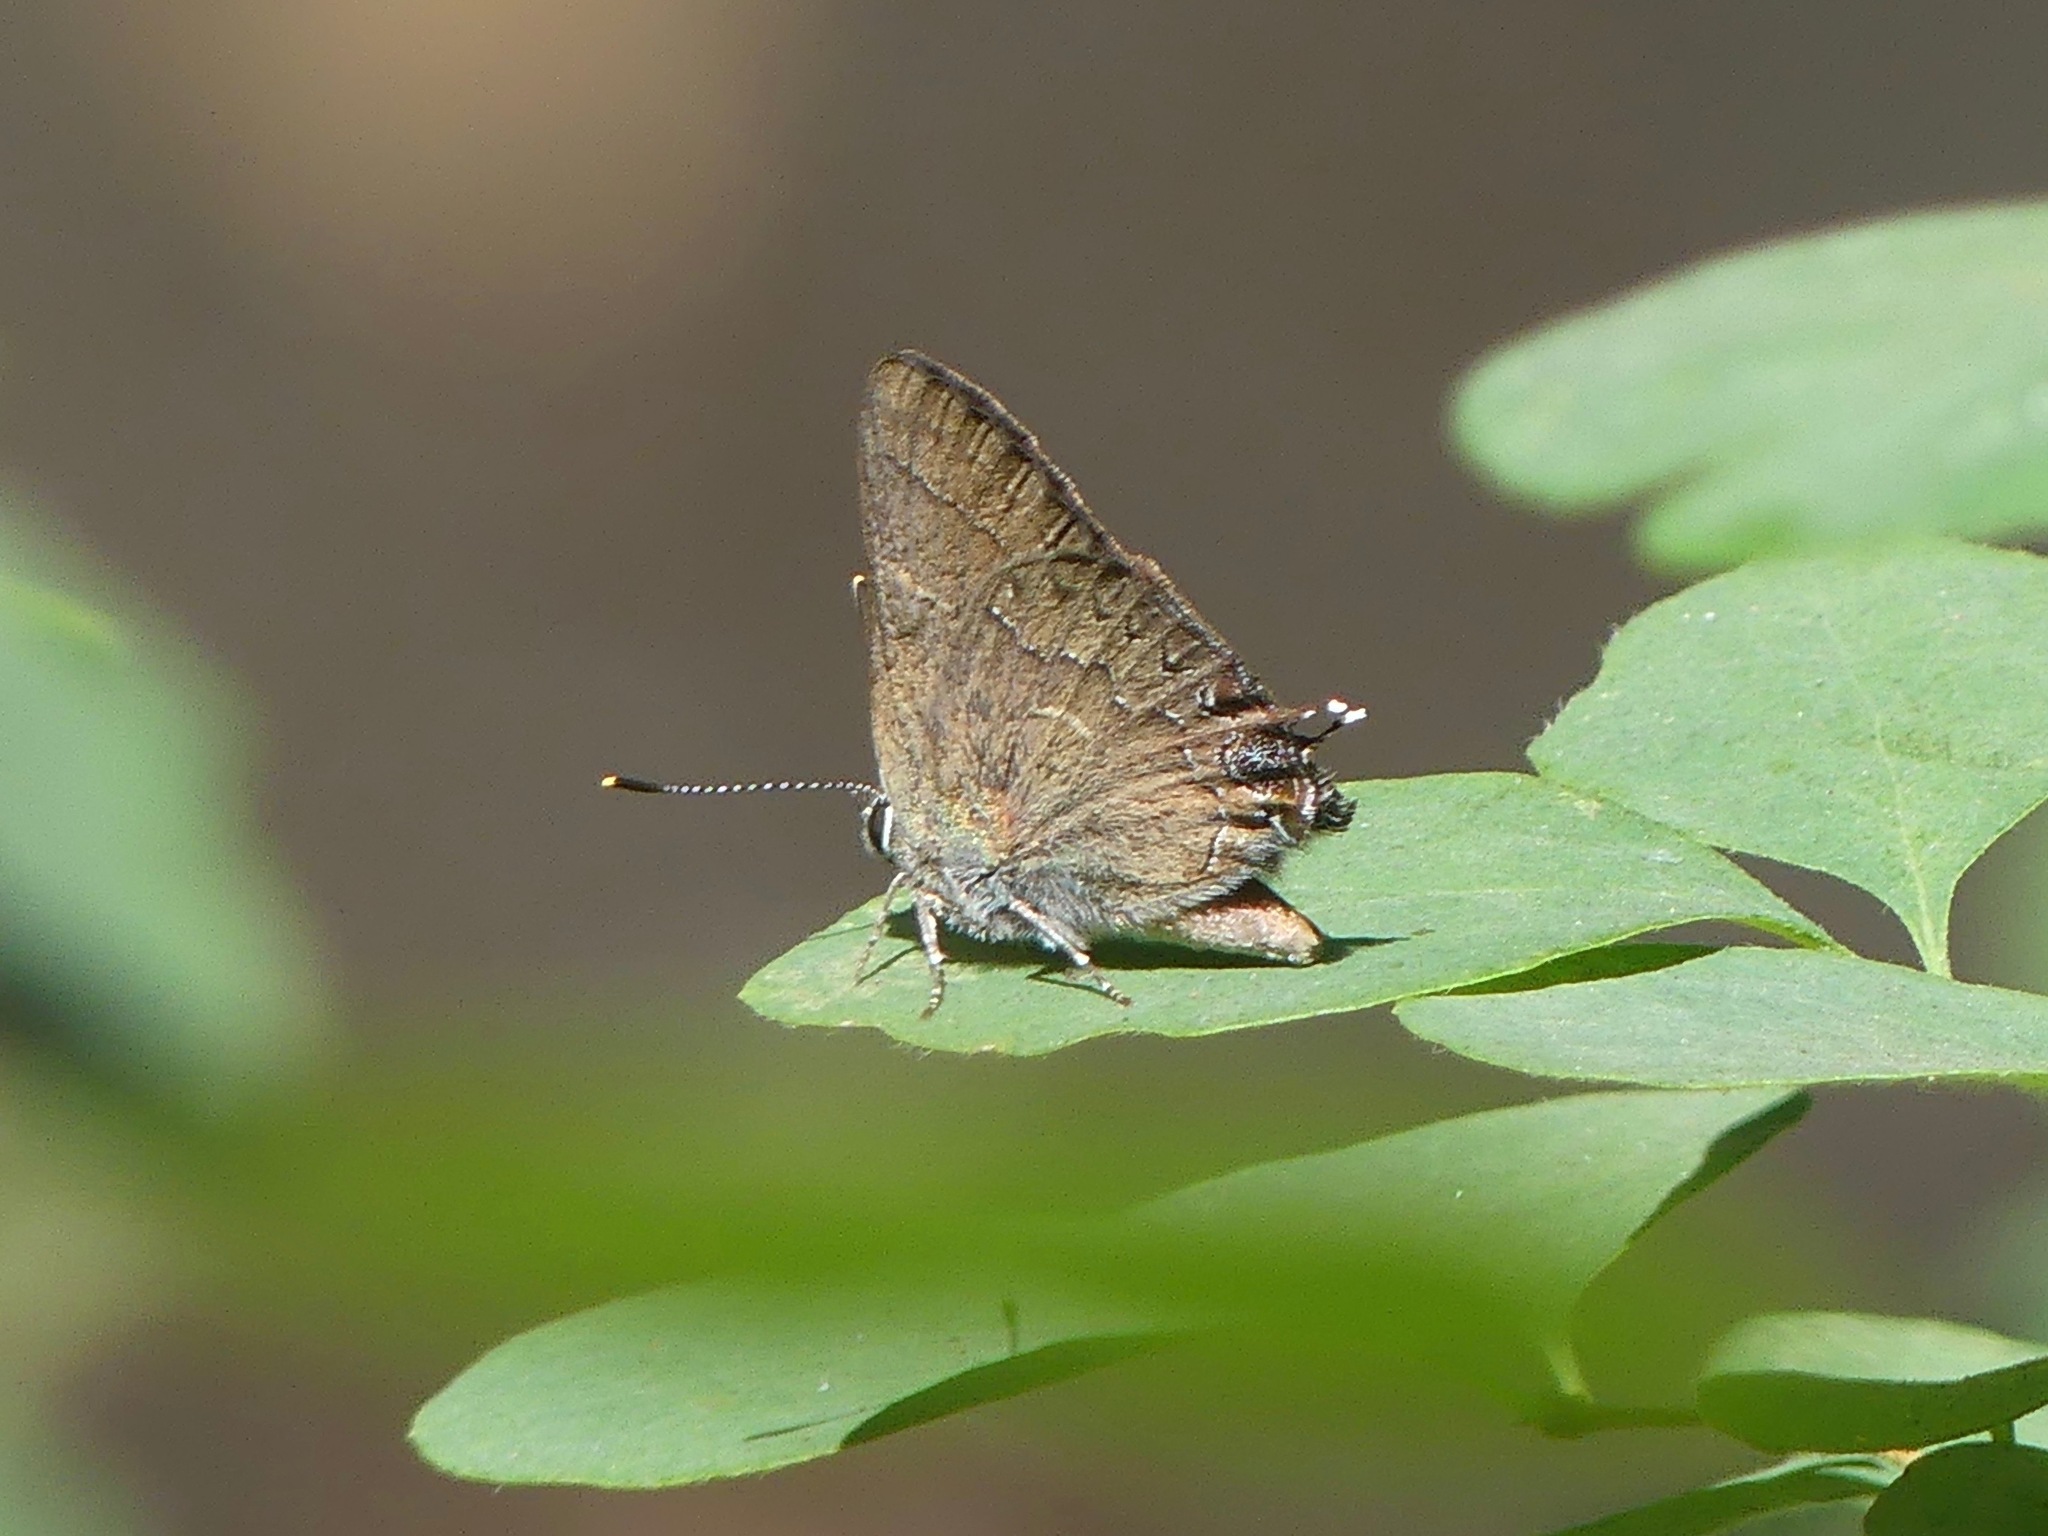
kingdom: Animalia
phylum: Arthropoda
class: Insecta
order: Lepidoptera
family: Lycaenidae
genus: Strymon
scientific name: Strymon saepium
